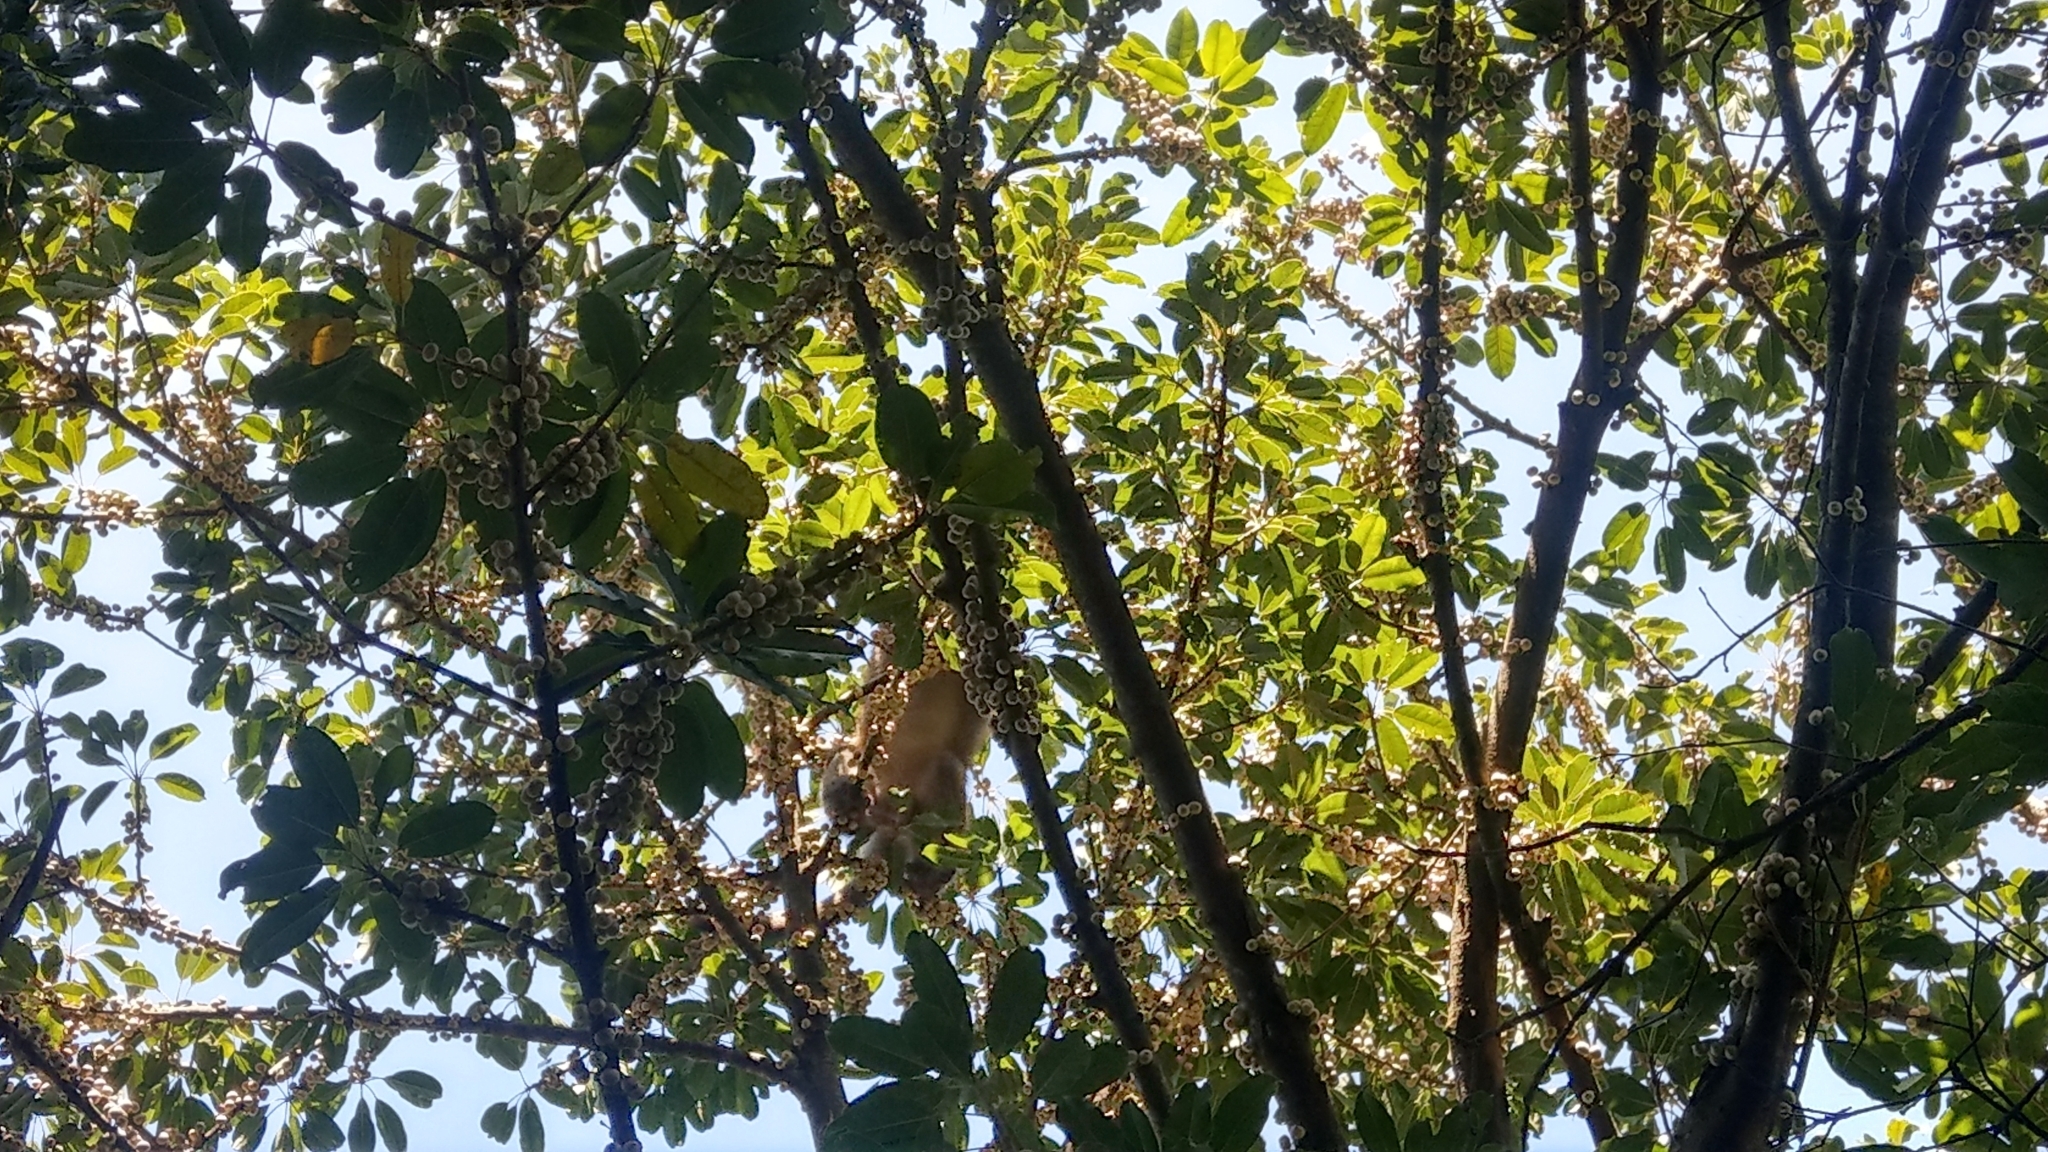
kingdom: Animalia
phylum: Chordata
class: Mammalia
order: Primates
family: Cercopithecidae
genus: Macaca
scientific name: Macaca cyclopis
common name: Formosan rock macaque
